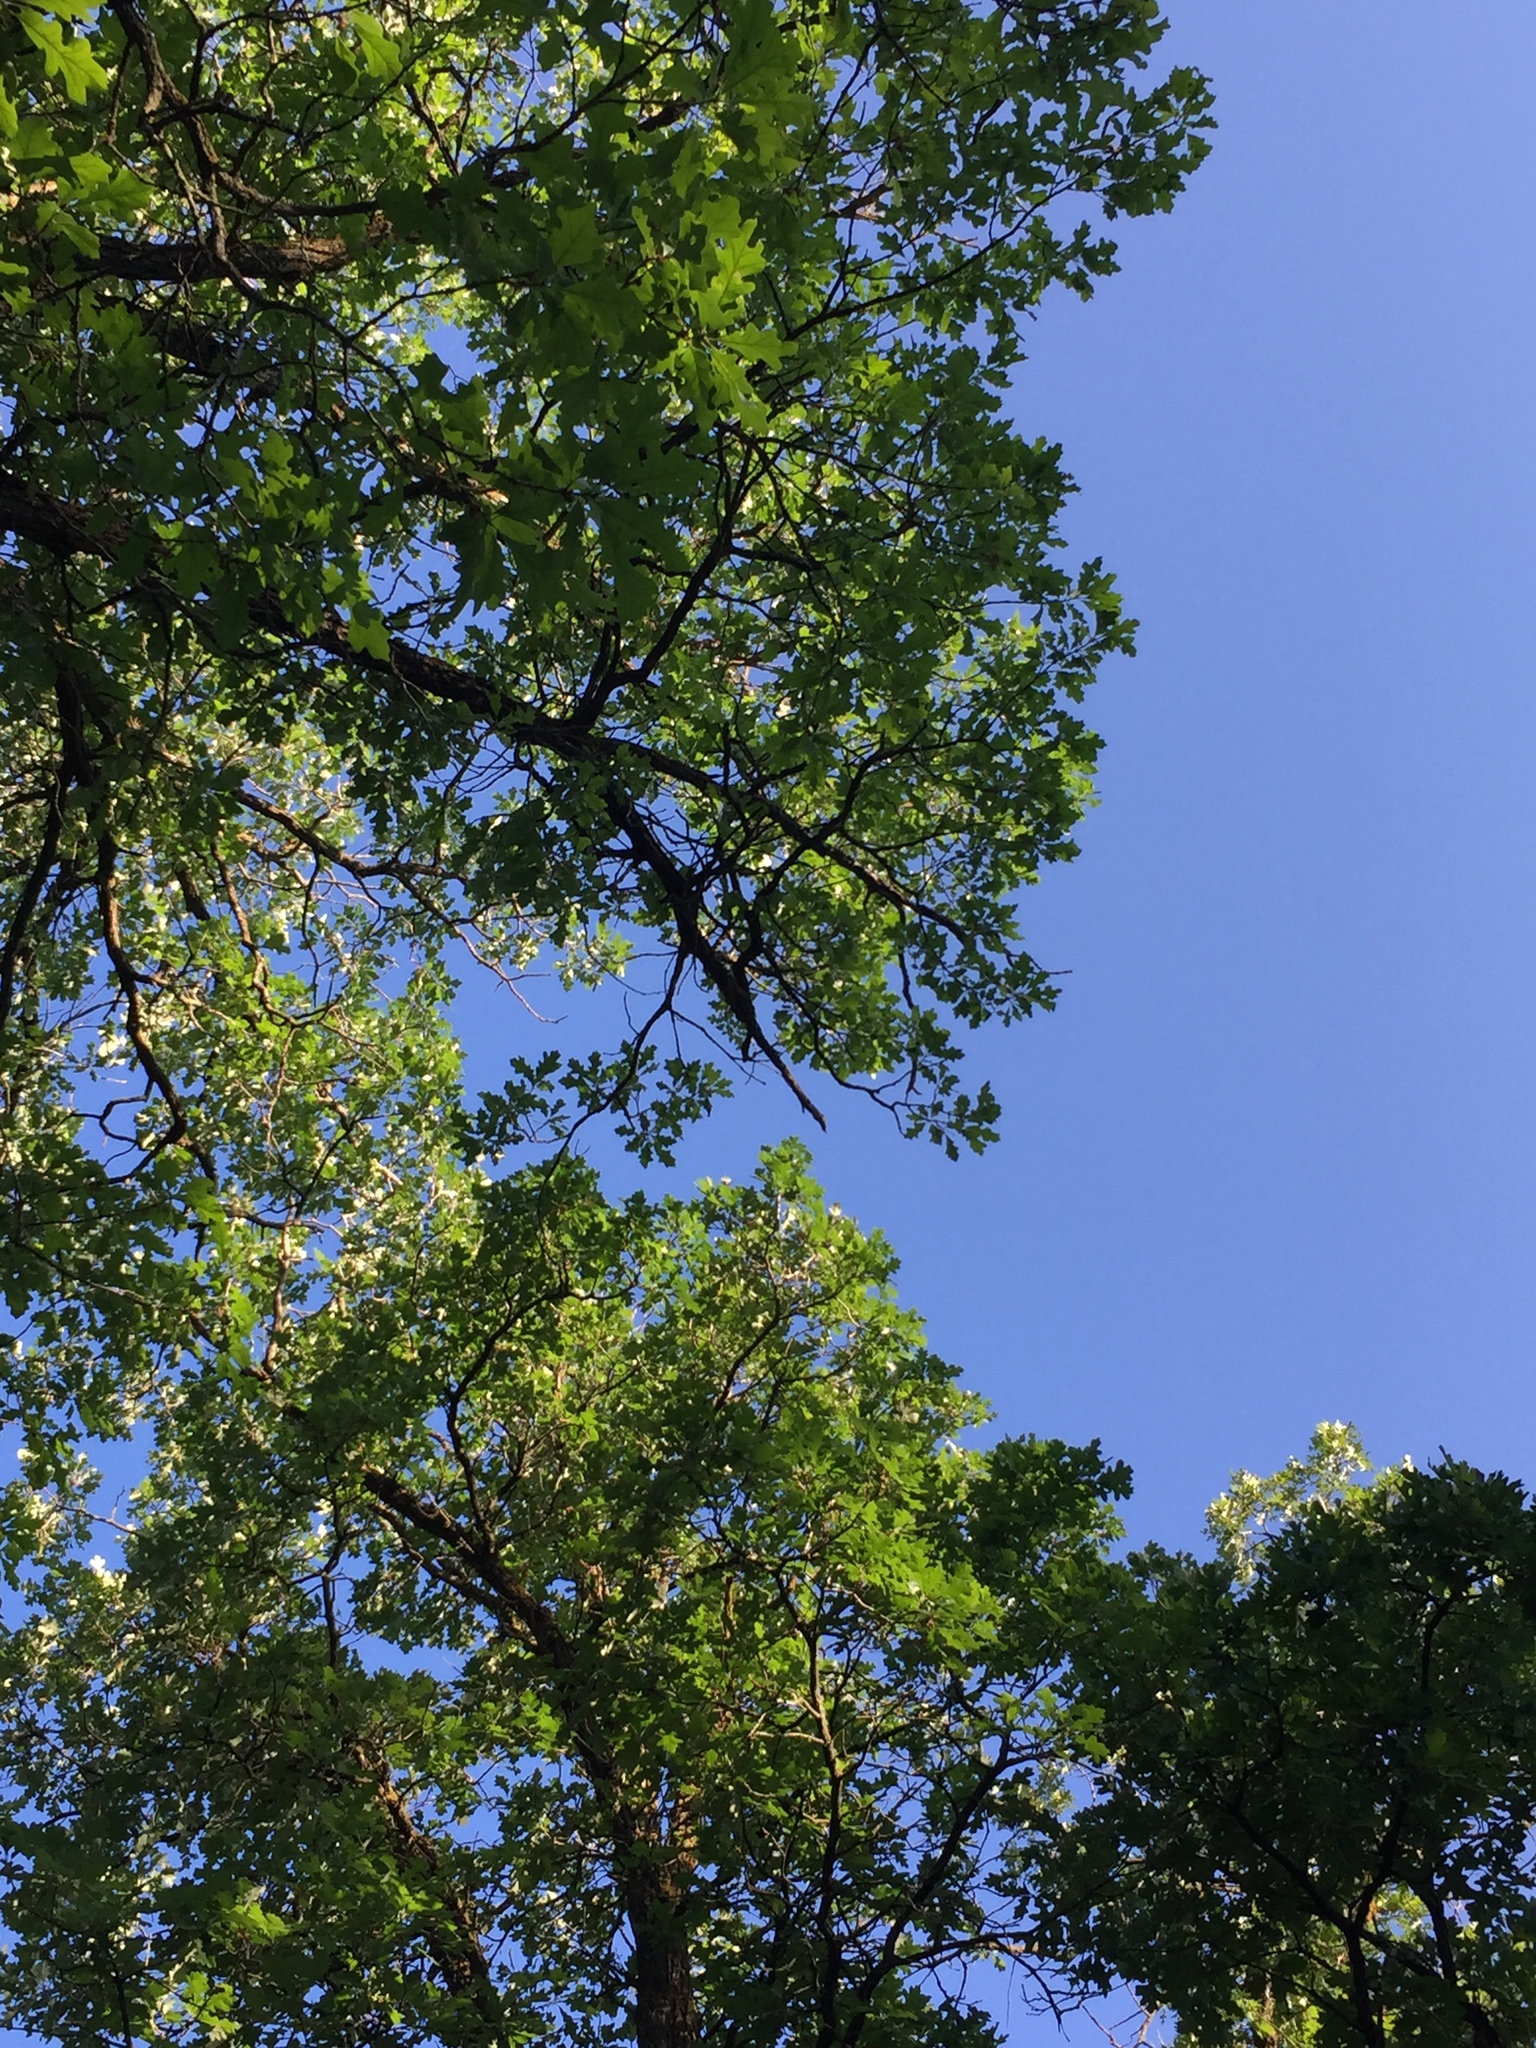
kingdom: Plantae
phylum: Tracheophyta
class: Magnoliopsida
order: Fagales
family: Fagaceae
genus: Quercus
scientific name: Quercus macrocarpa
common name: Bur oak
